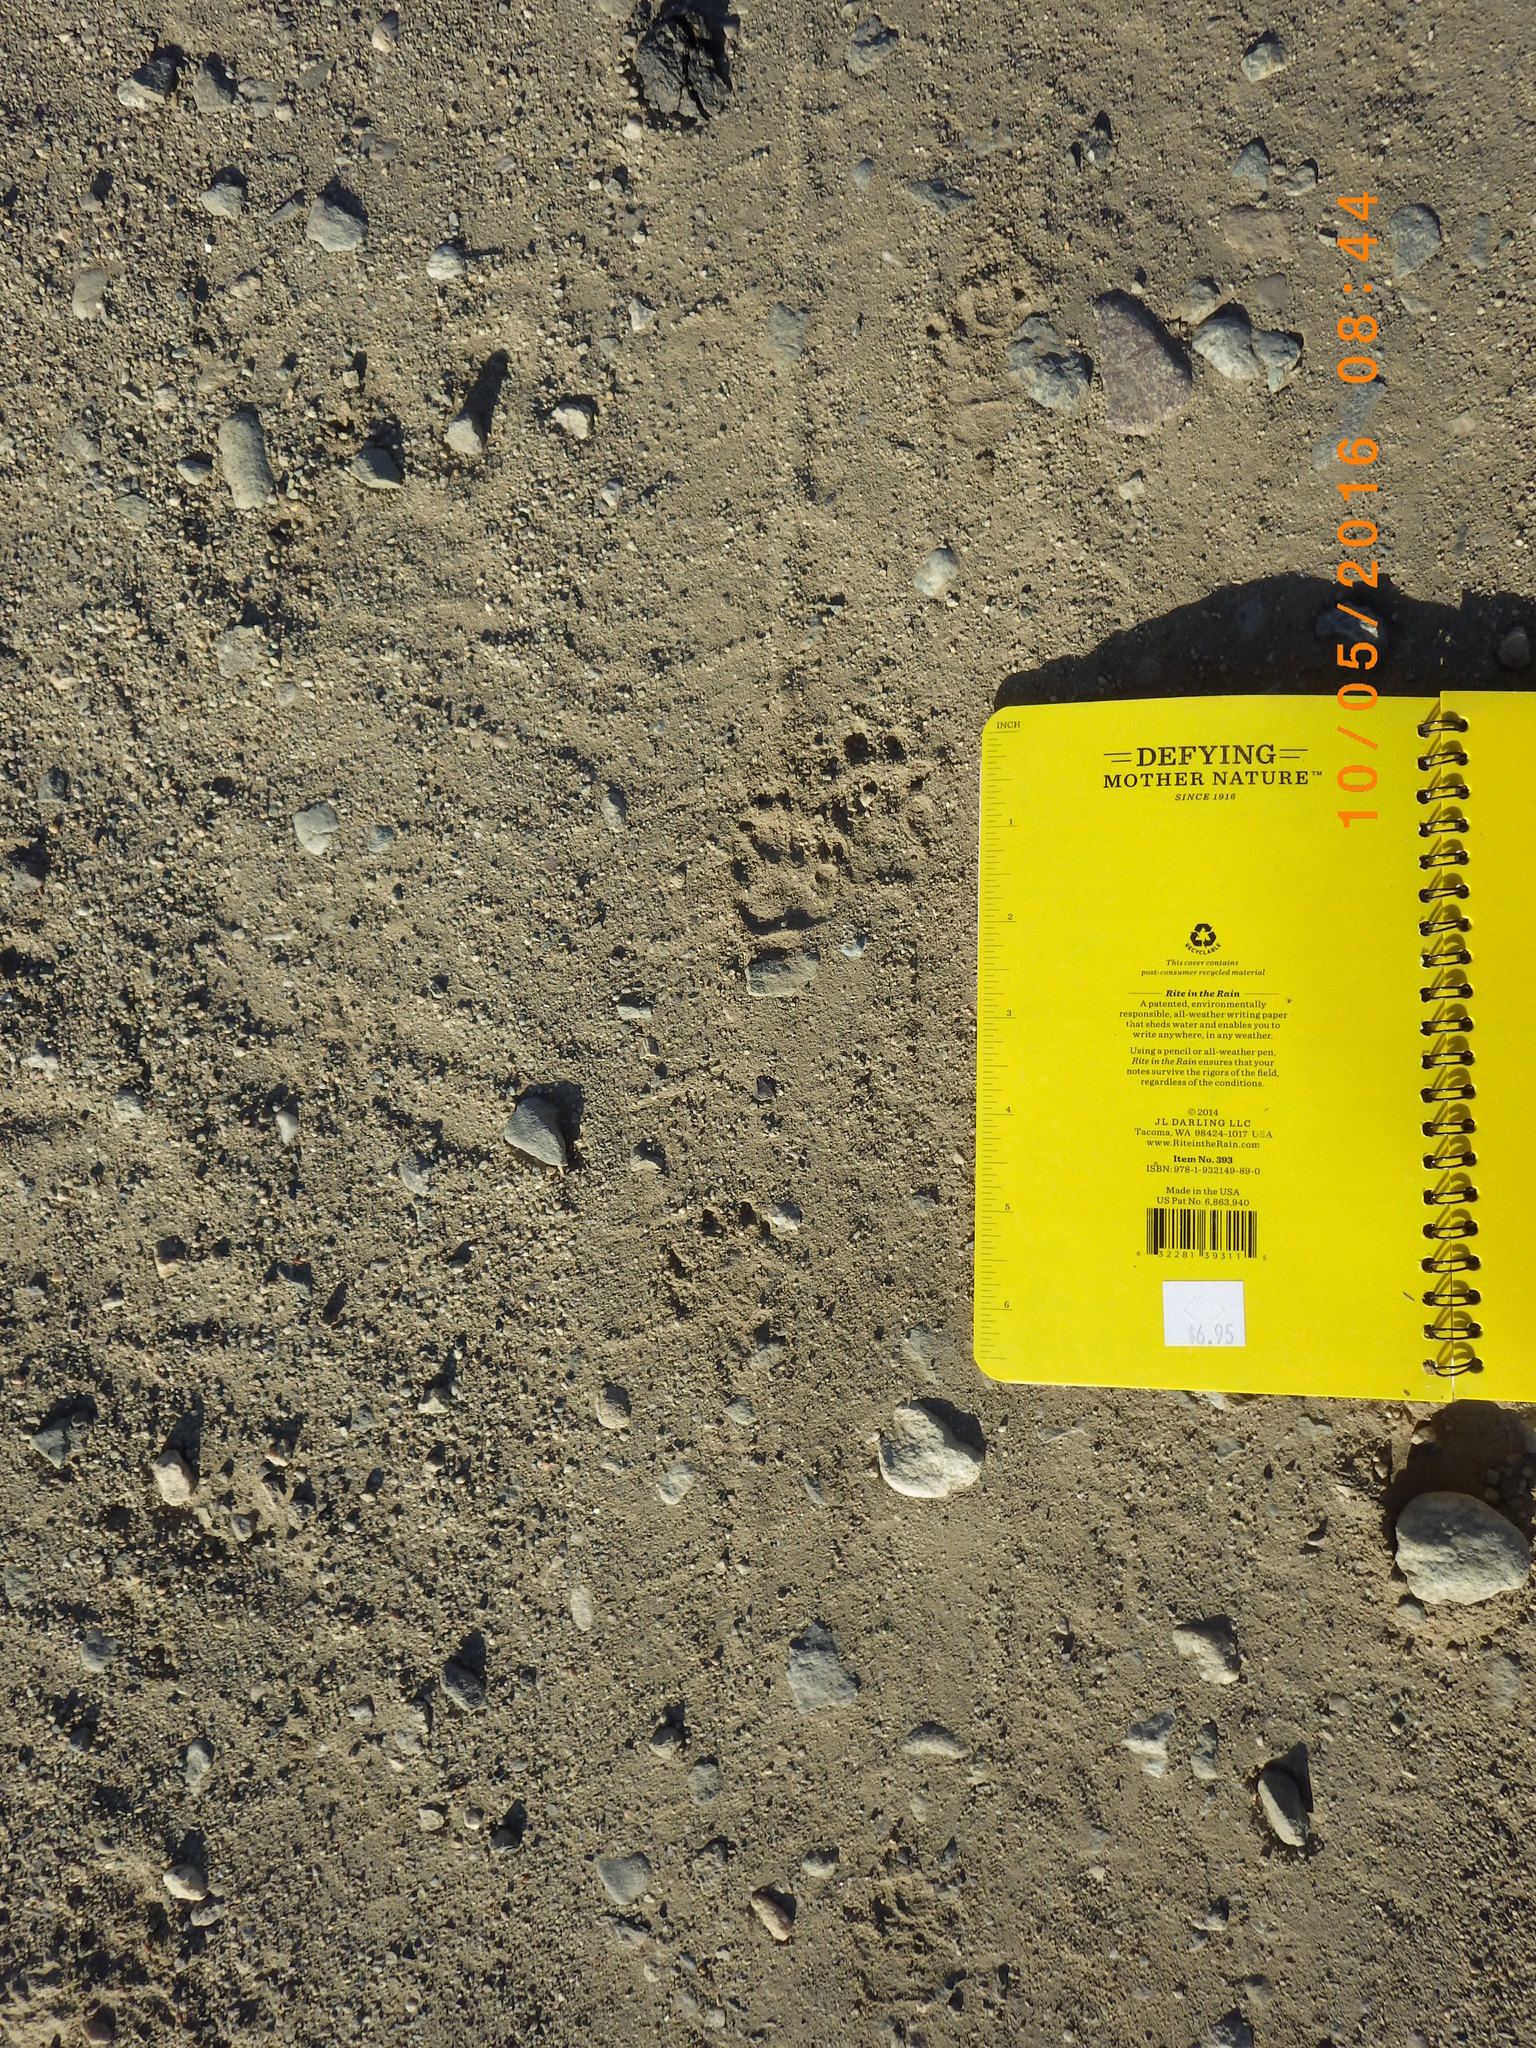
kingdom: Animalia
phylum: Chordata
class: Mammalia
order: Carnivora
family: Mephitidae
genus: Mephitis
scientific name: Mephitis mephitis
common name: Striped skunk
